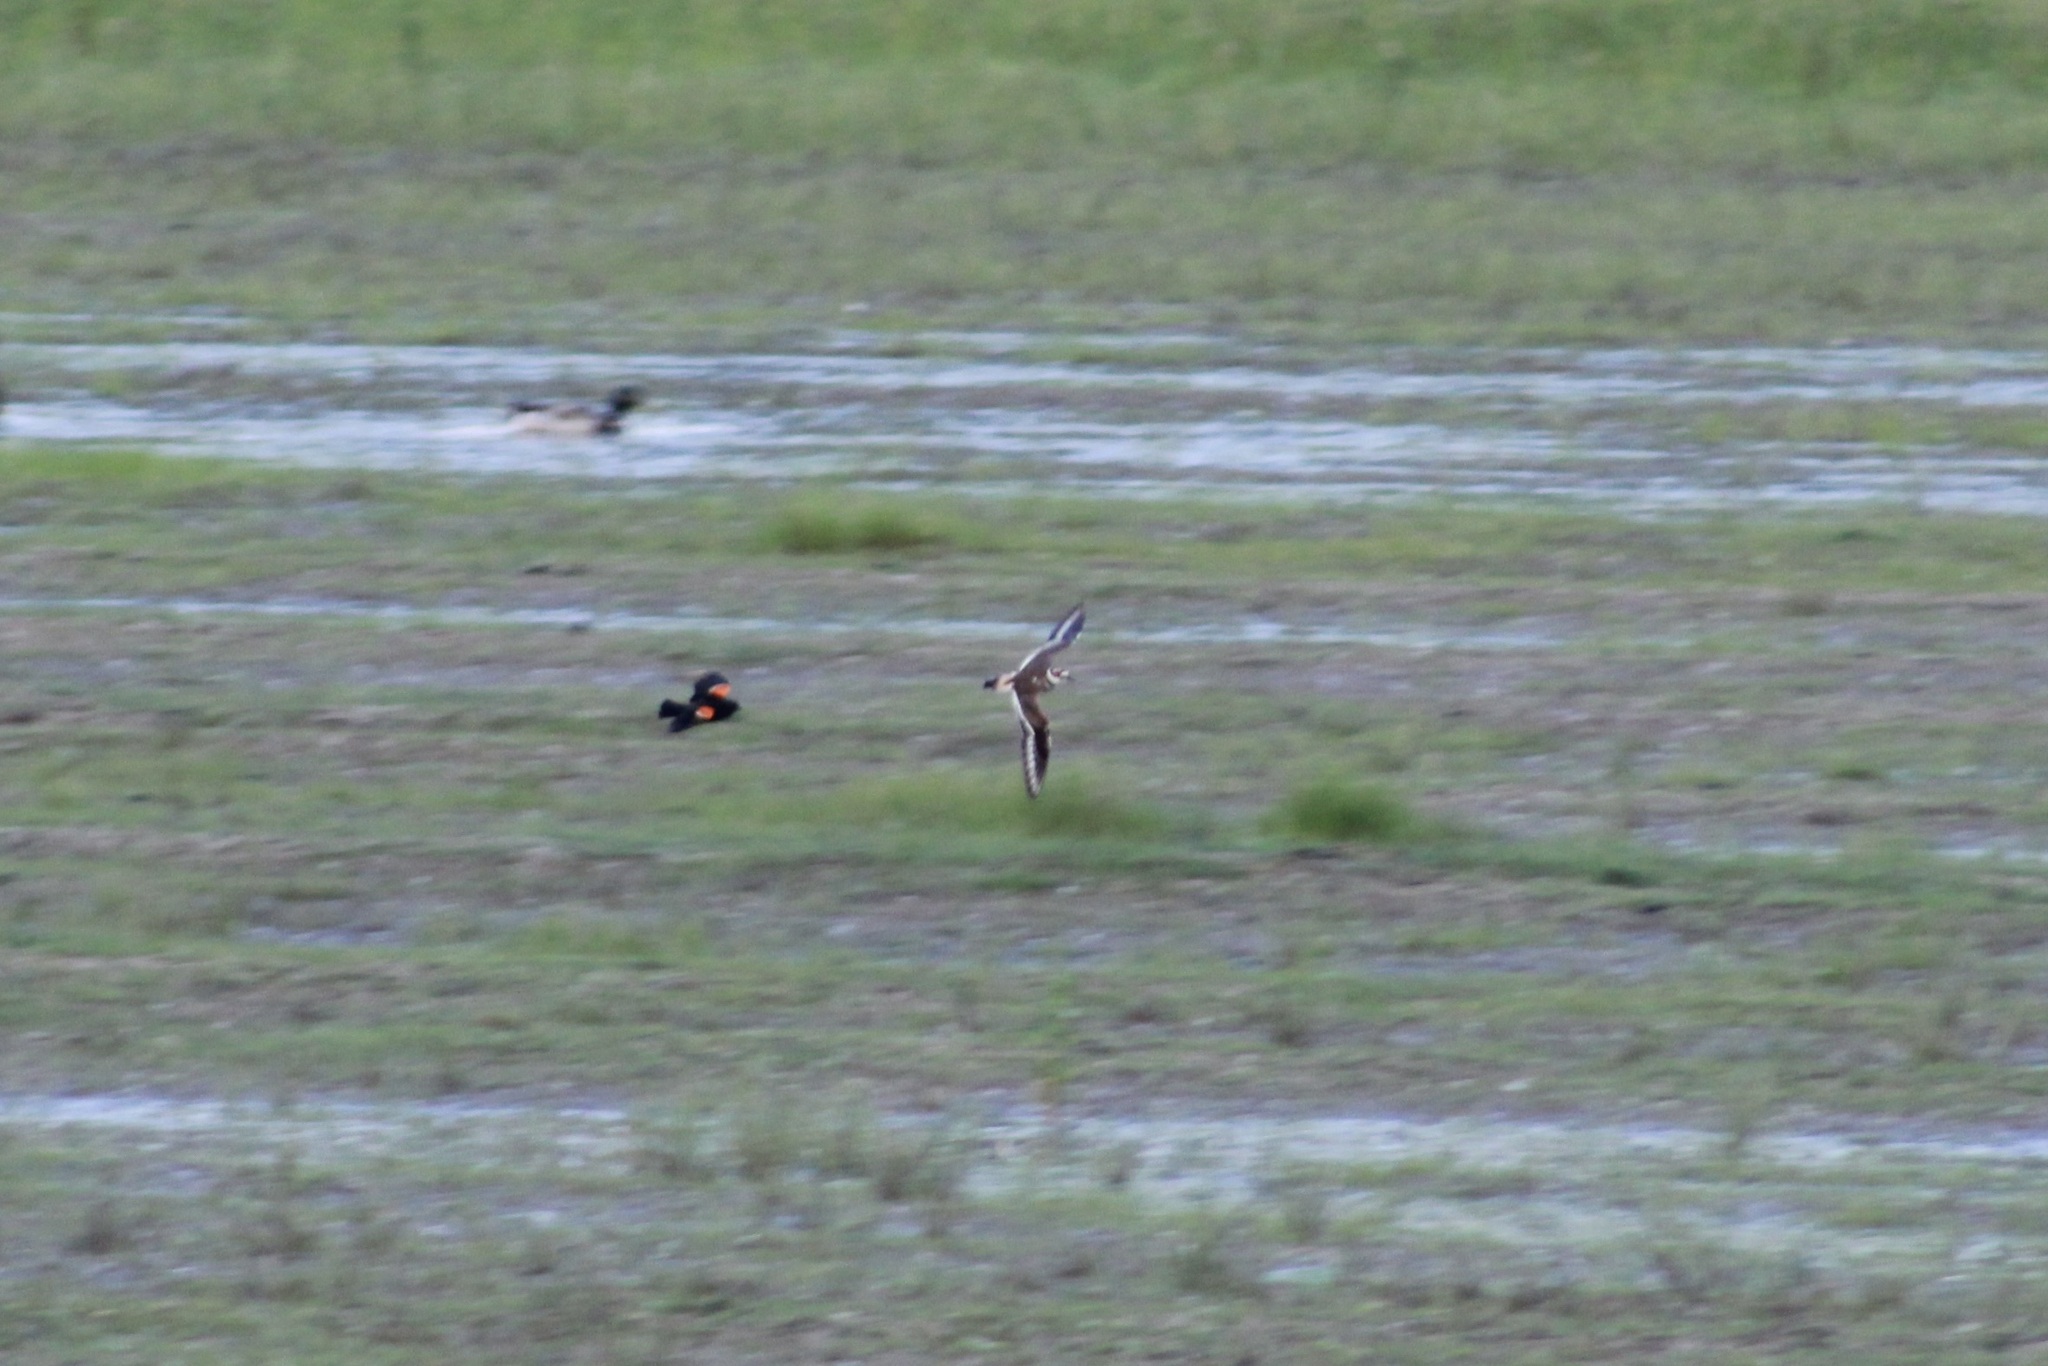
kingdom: Animalia
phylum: Chordata
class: Aves
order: Charadriiformes
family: Charadriidae
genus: Charadrius
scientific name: Charadrius vociferus
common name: Killdeer
